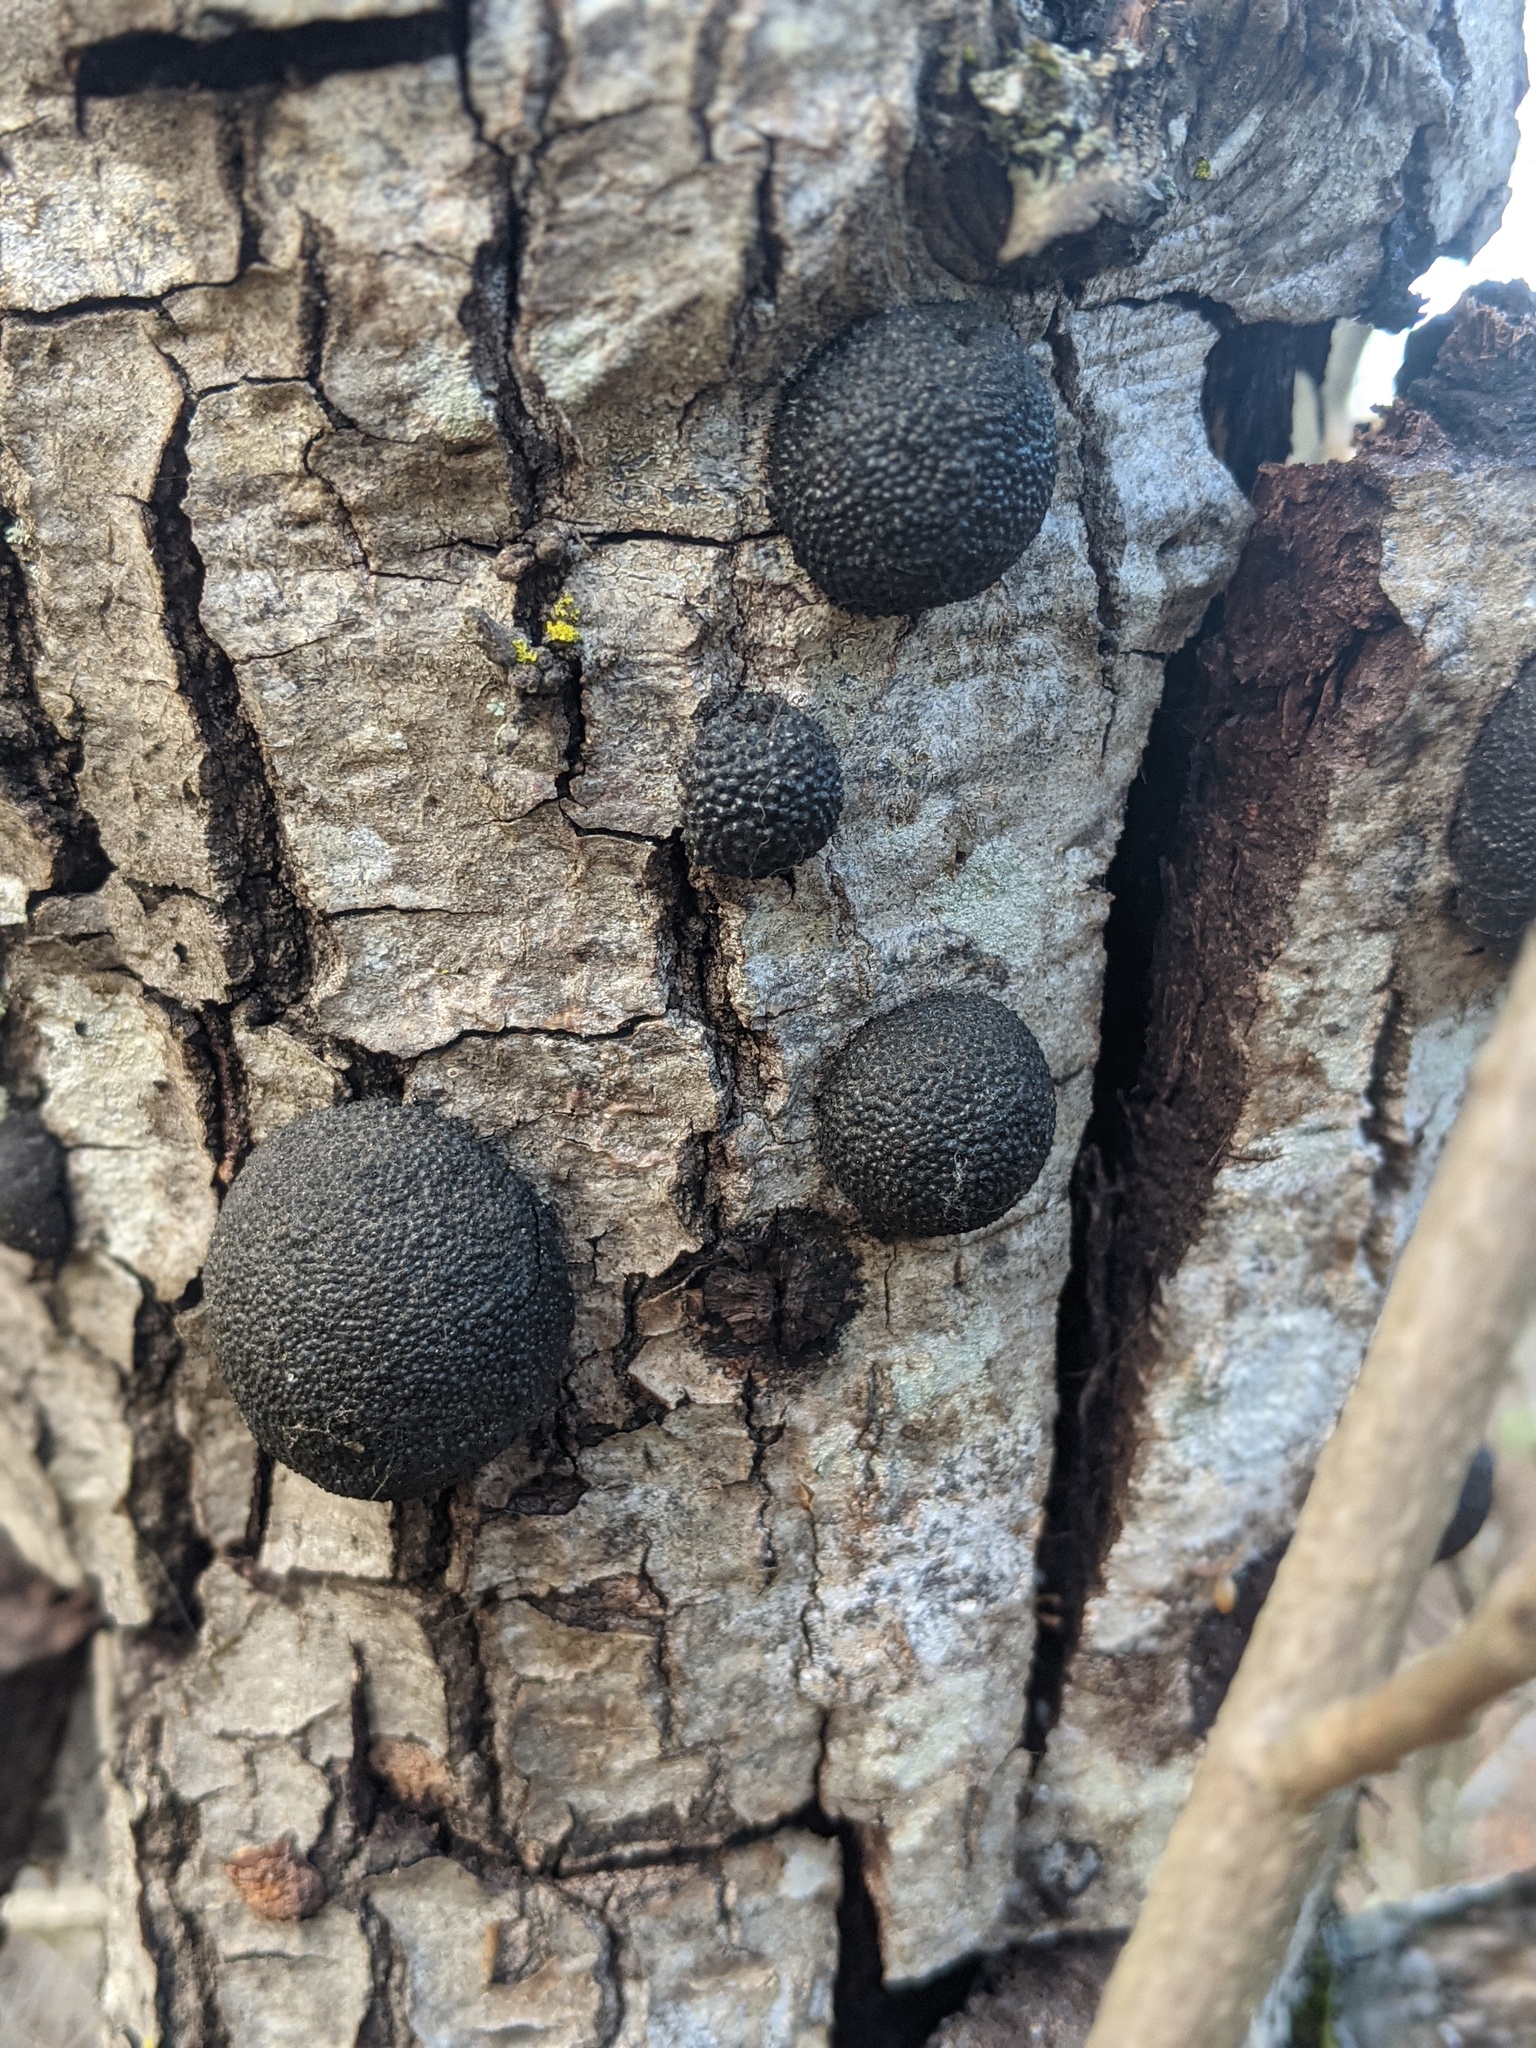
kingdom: Fungi
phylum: Ascomycota
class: Sordariomycetes
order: Xylariales
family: Hypoxylaceae
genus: Annulohypoxylon
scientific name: Annulohypoxylon thouarsianum
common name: Cramp balls
